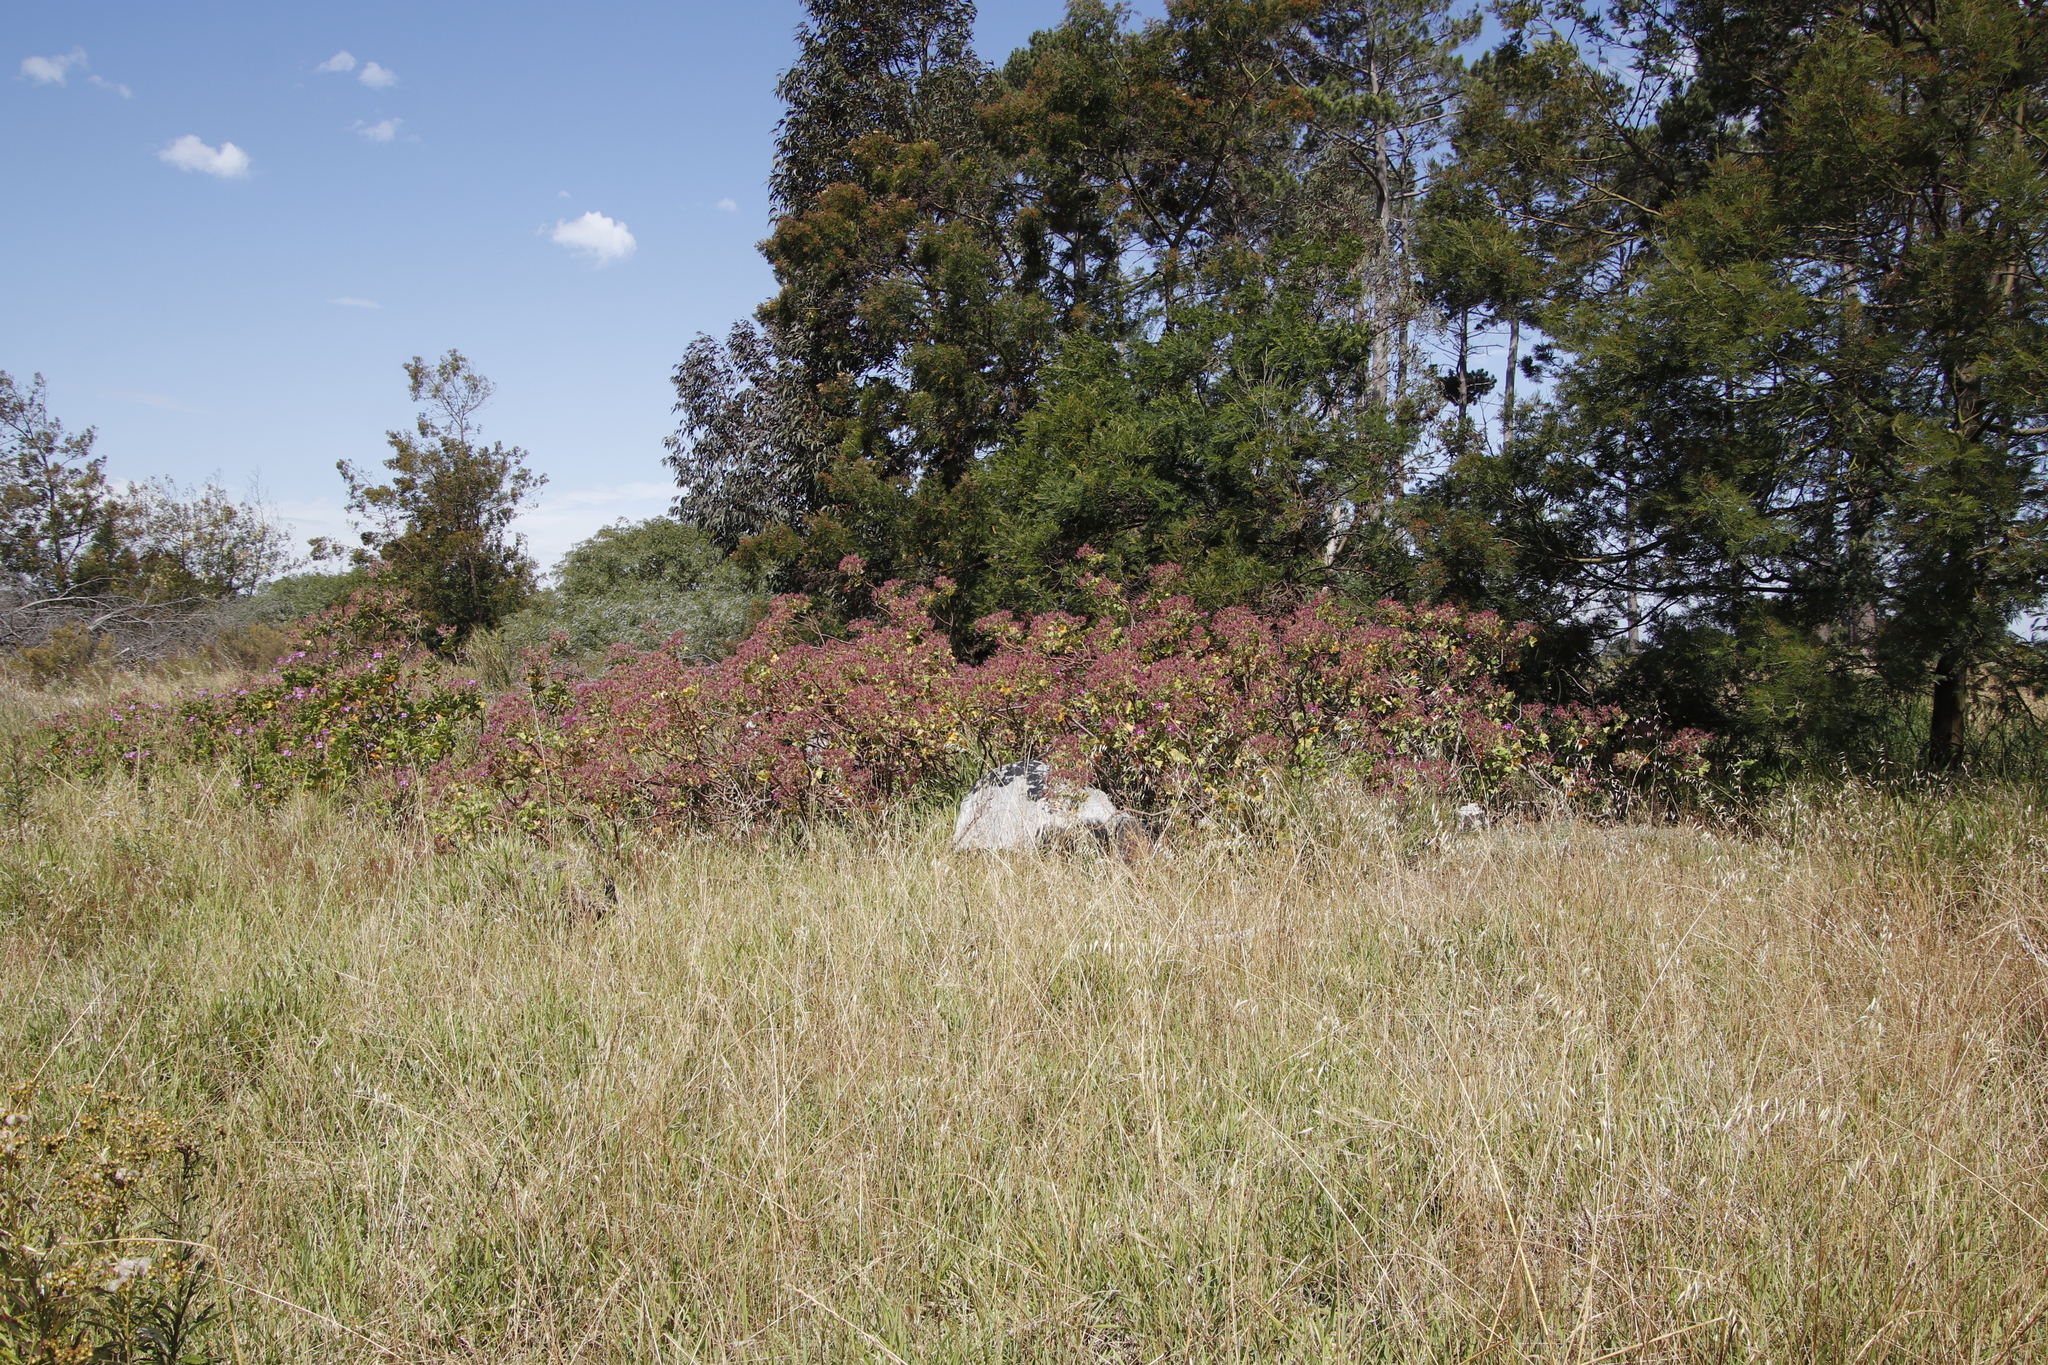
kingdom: Plantae
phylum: Tracheophyta
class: Magnoliopsida
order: Geraniales
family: Geraniaceae
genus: Pelargonium
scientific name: Pelargonium cucullatum
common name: Tree pelargonium
